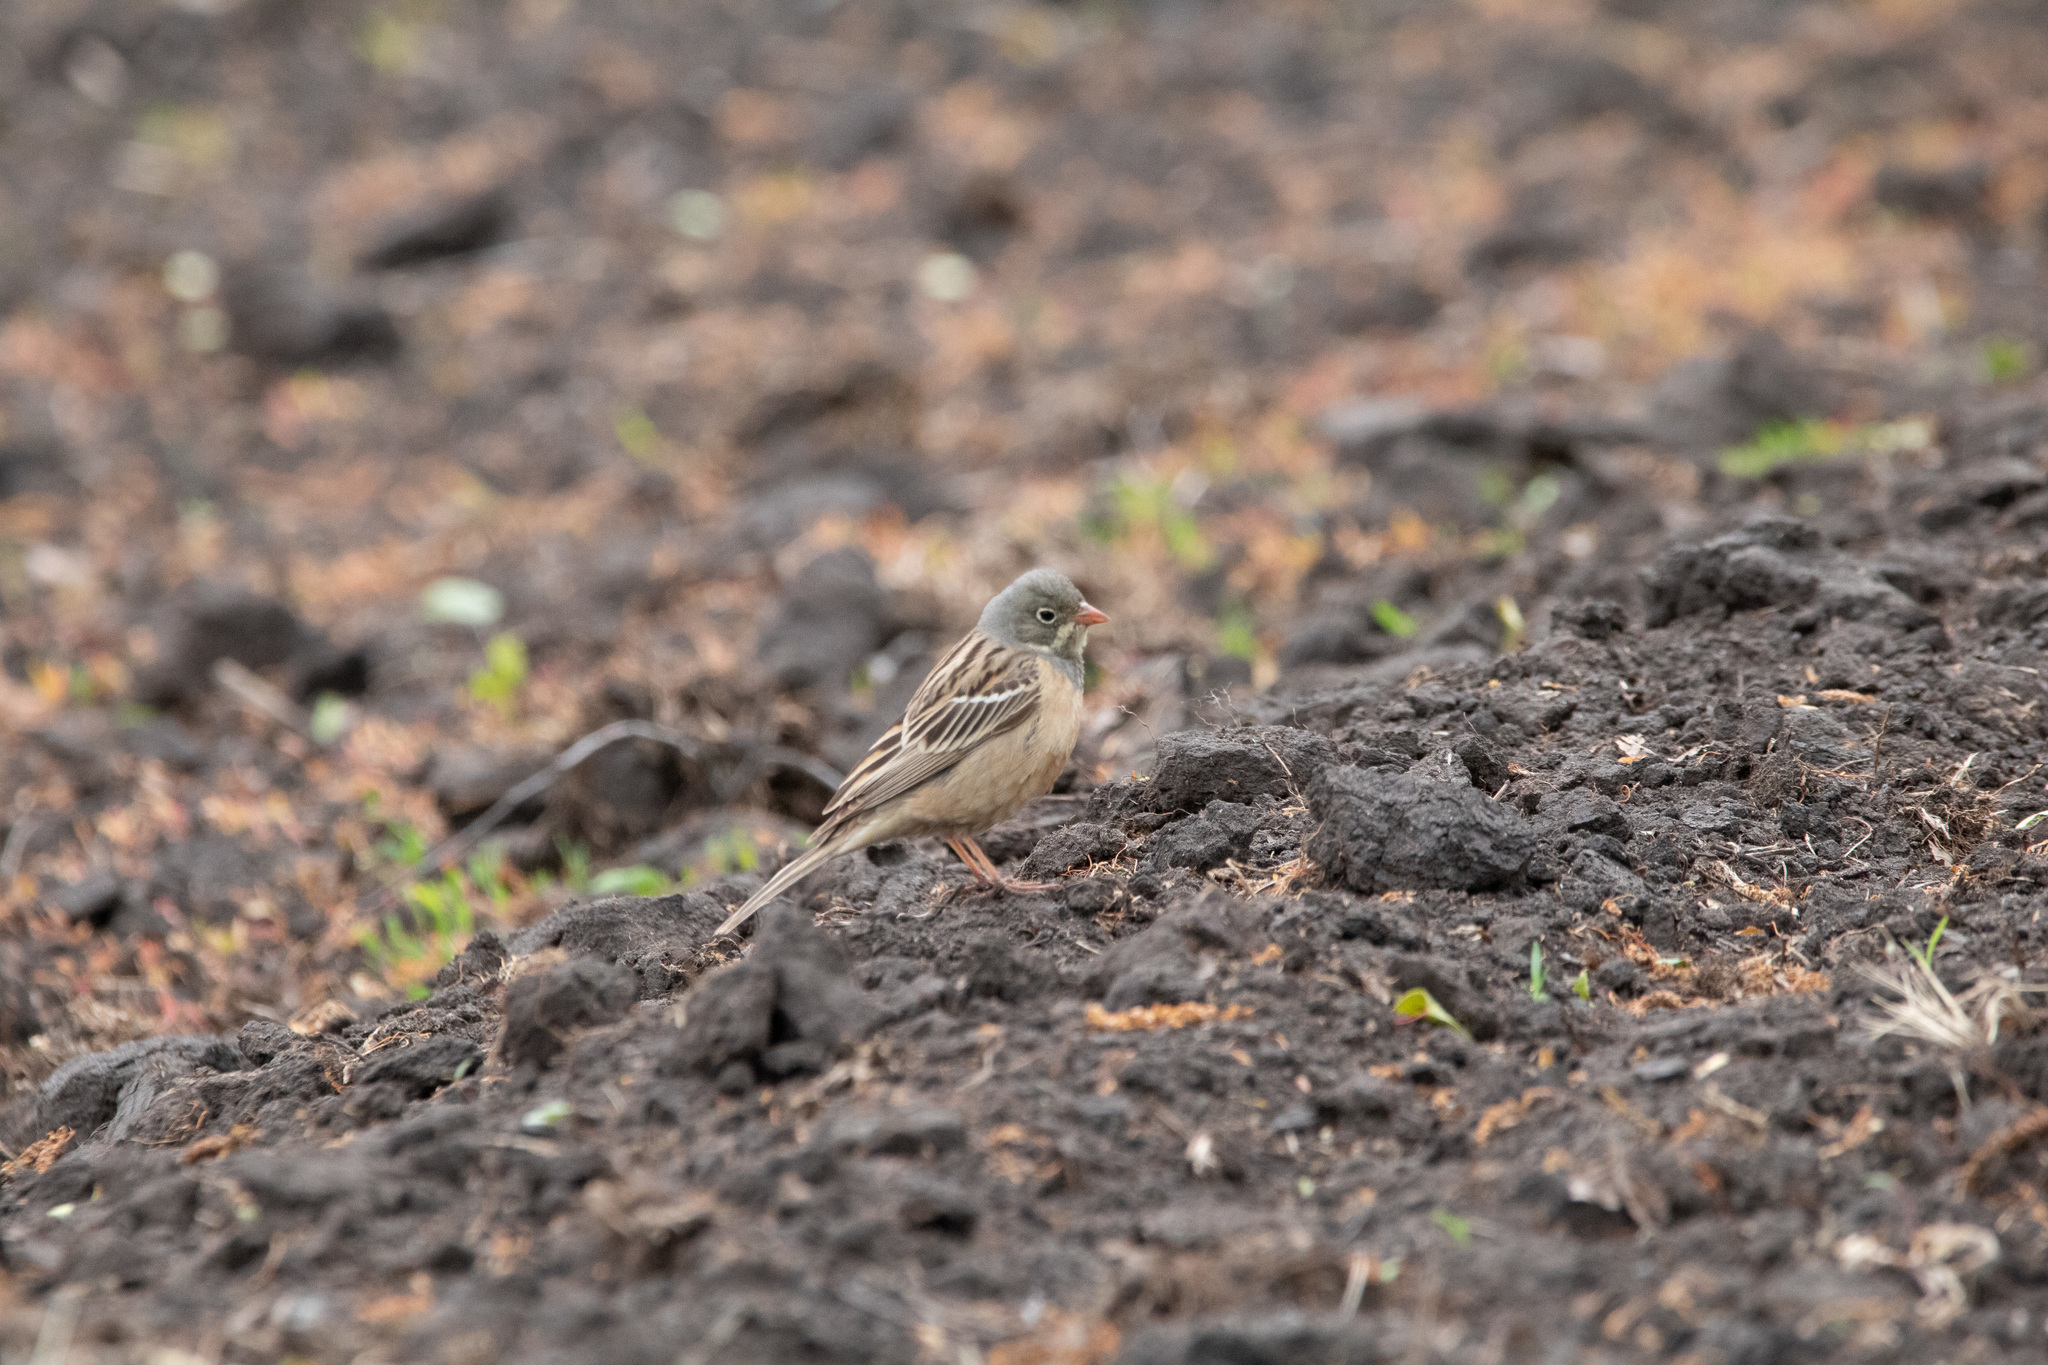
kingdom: Animalia
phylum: Chordata
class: Aves
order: Passeriformes
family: Emberizidae
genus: Emberiza
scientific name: Emberiza hortulana
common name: Ortolan bunting
